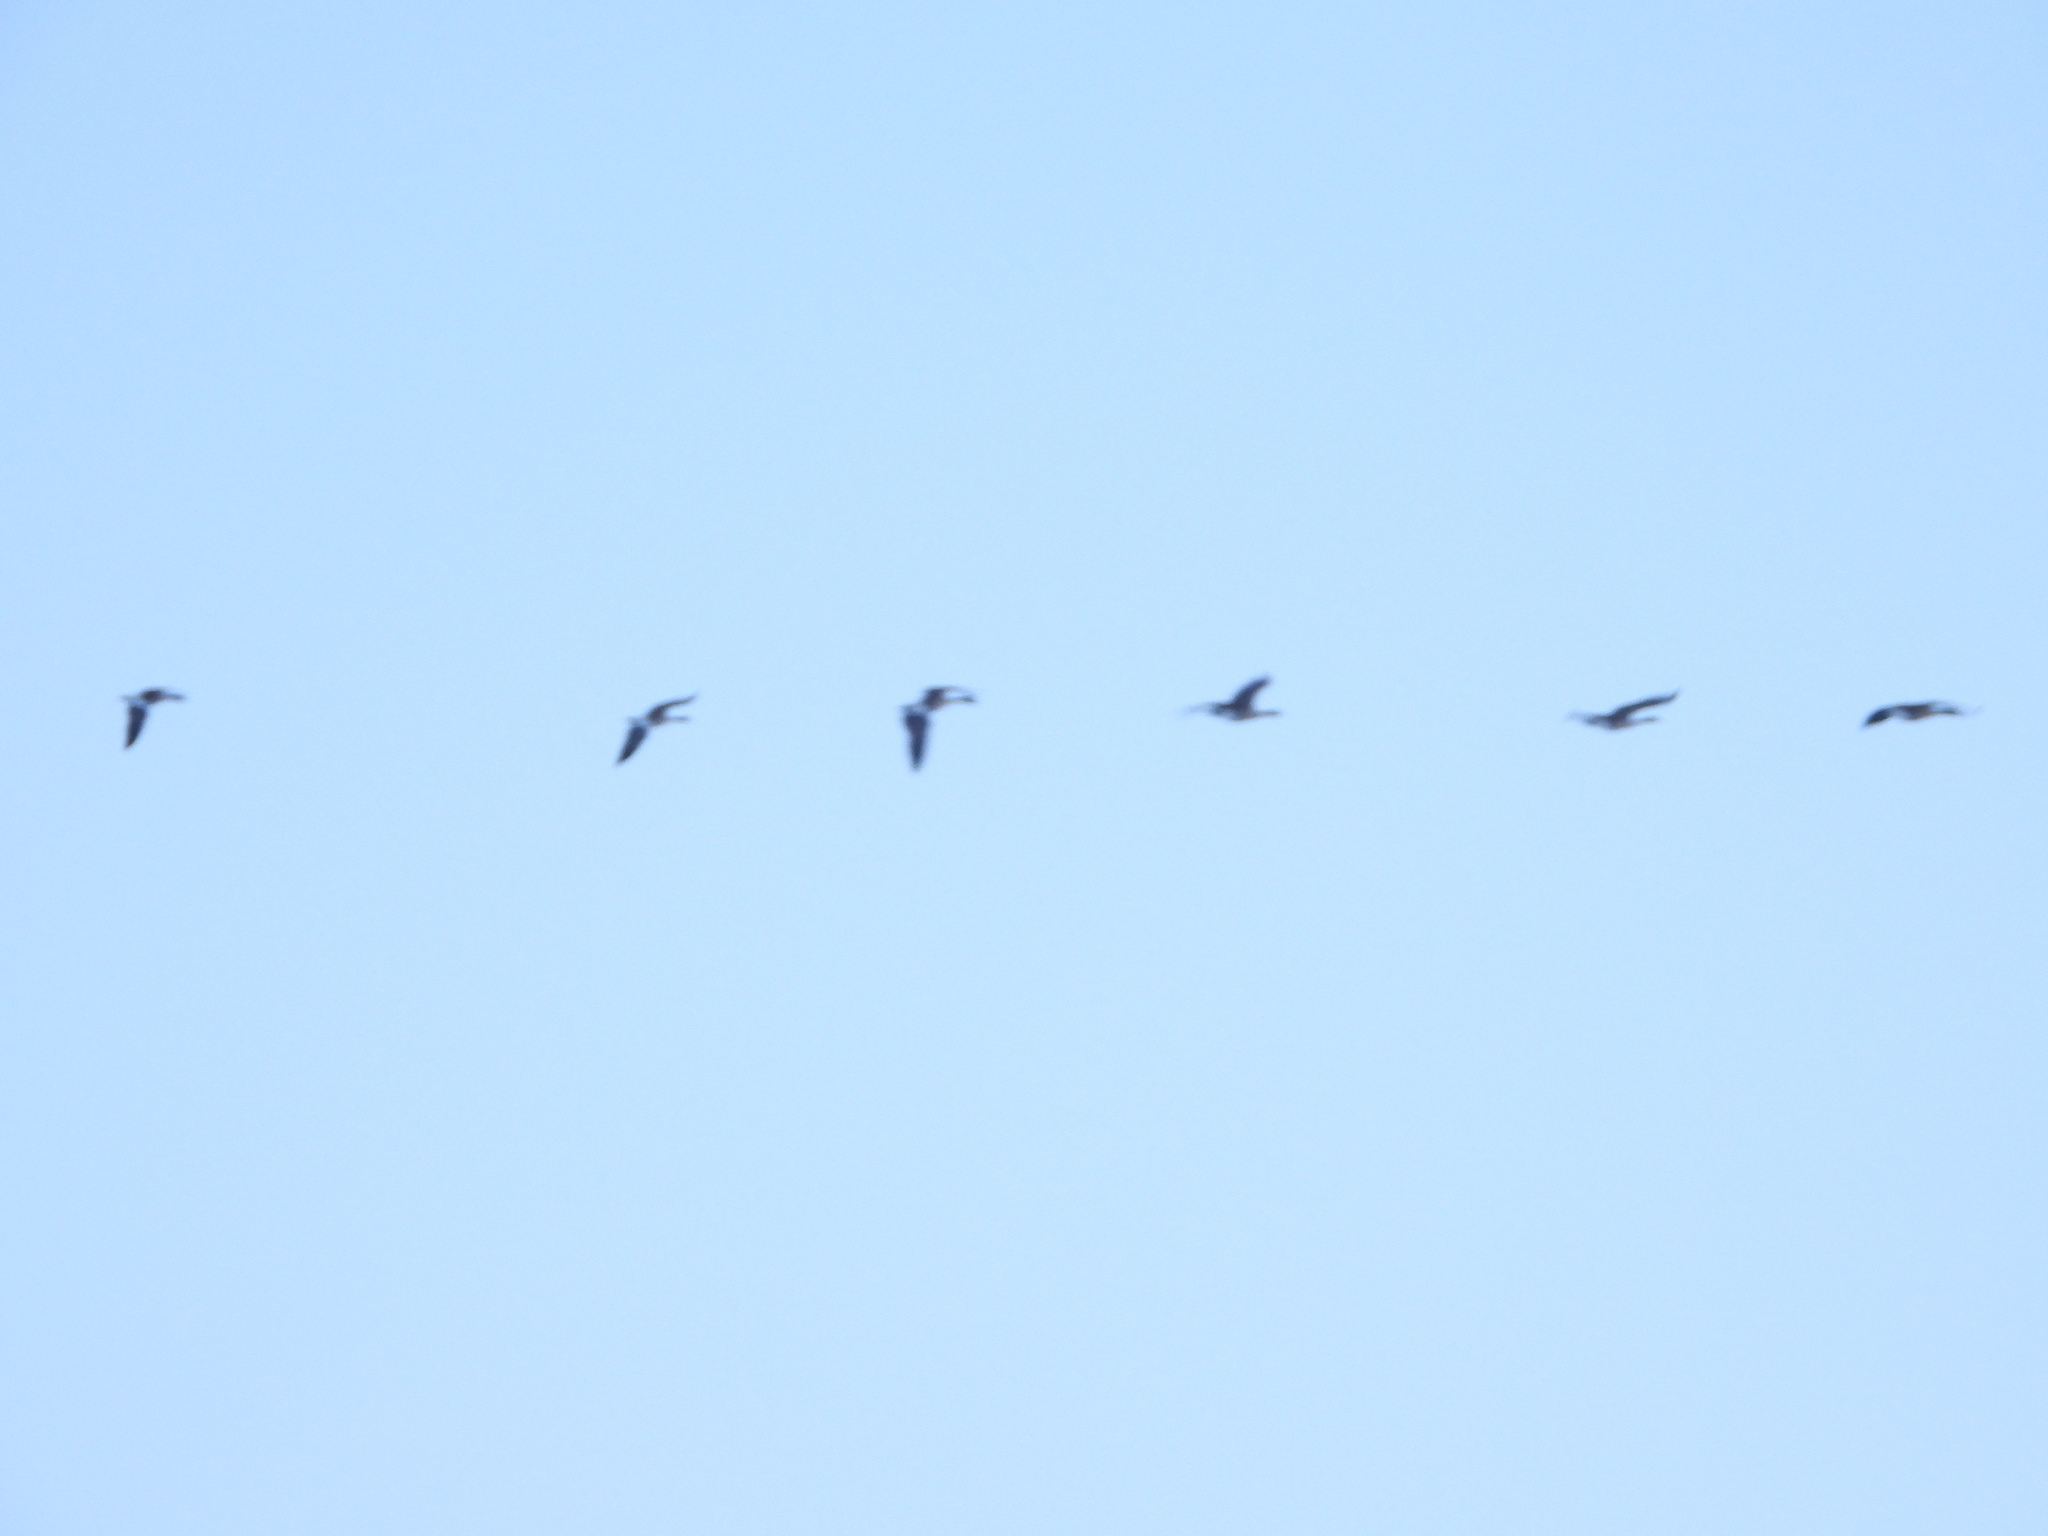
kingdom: Animalia
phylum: Chordata
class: Aves
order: Anseriformes
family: Anatidae
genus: Branta
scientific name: Branta canadensis
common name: Canada goose
